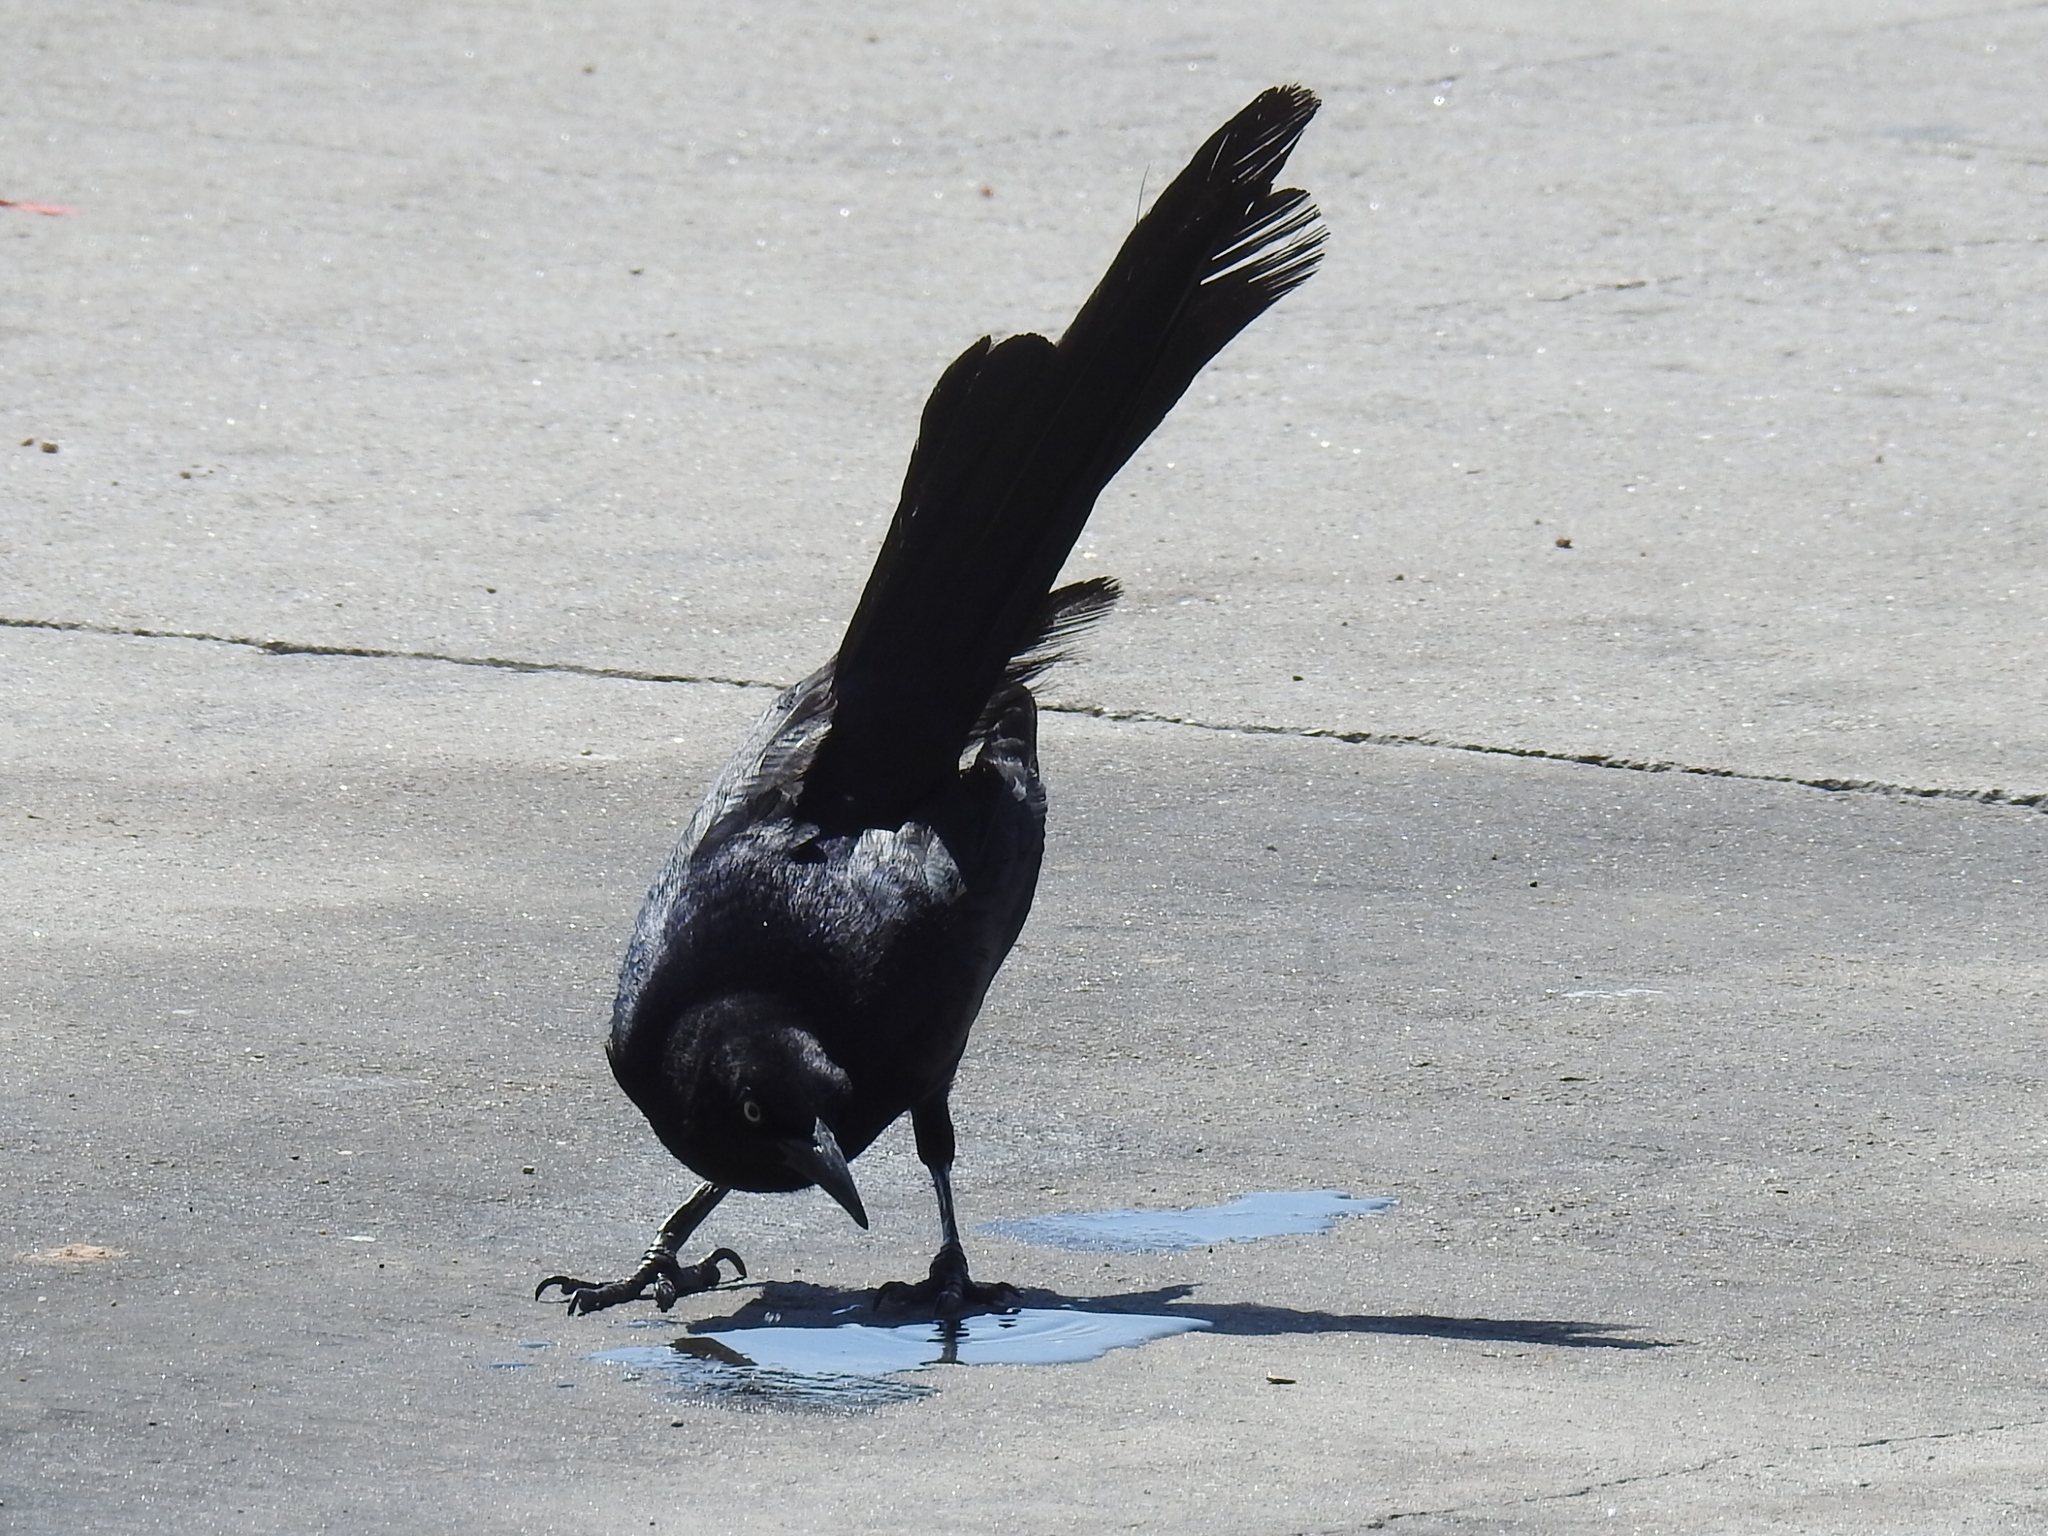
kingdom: Animalia
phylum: Chordata
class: Aves
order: Passeriformes
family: Icteridae
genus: Quiscalus
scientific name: Quiscalus mexicanus
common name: Great-tailed grackle
